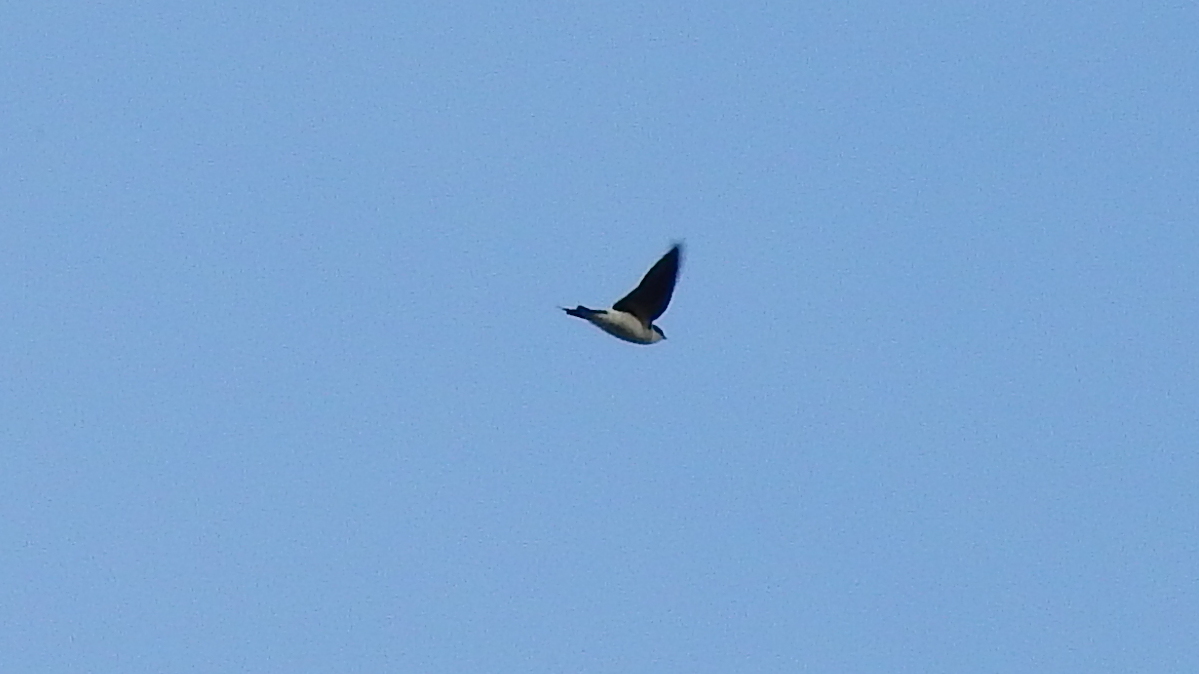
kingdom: Animalia
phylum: Chordata
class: Aves
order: Passeriformes
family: Hirundinidae
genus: Tachycineta
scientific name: Tachycineta leucopyga
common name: Chilean swallow
